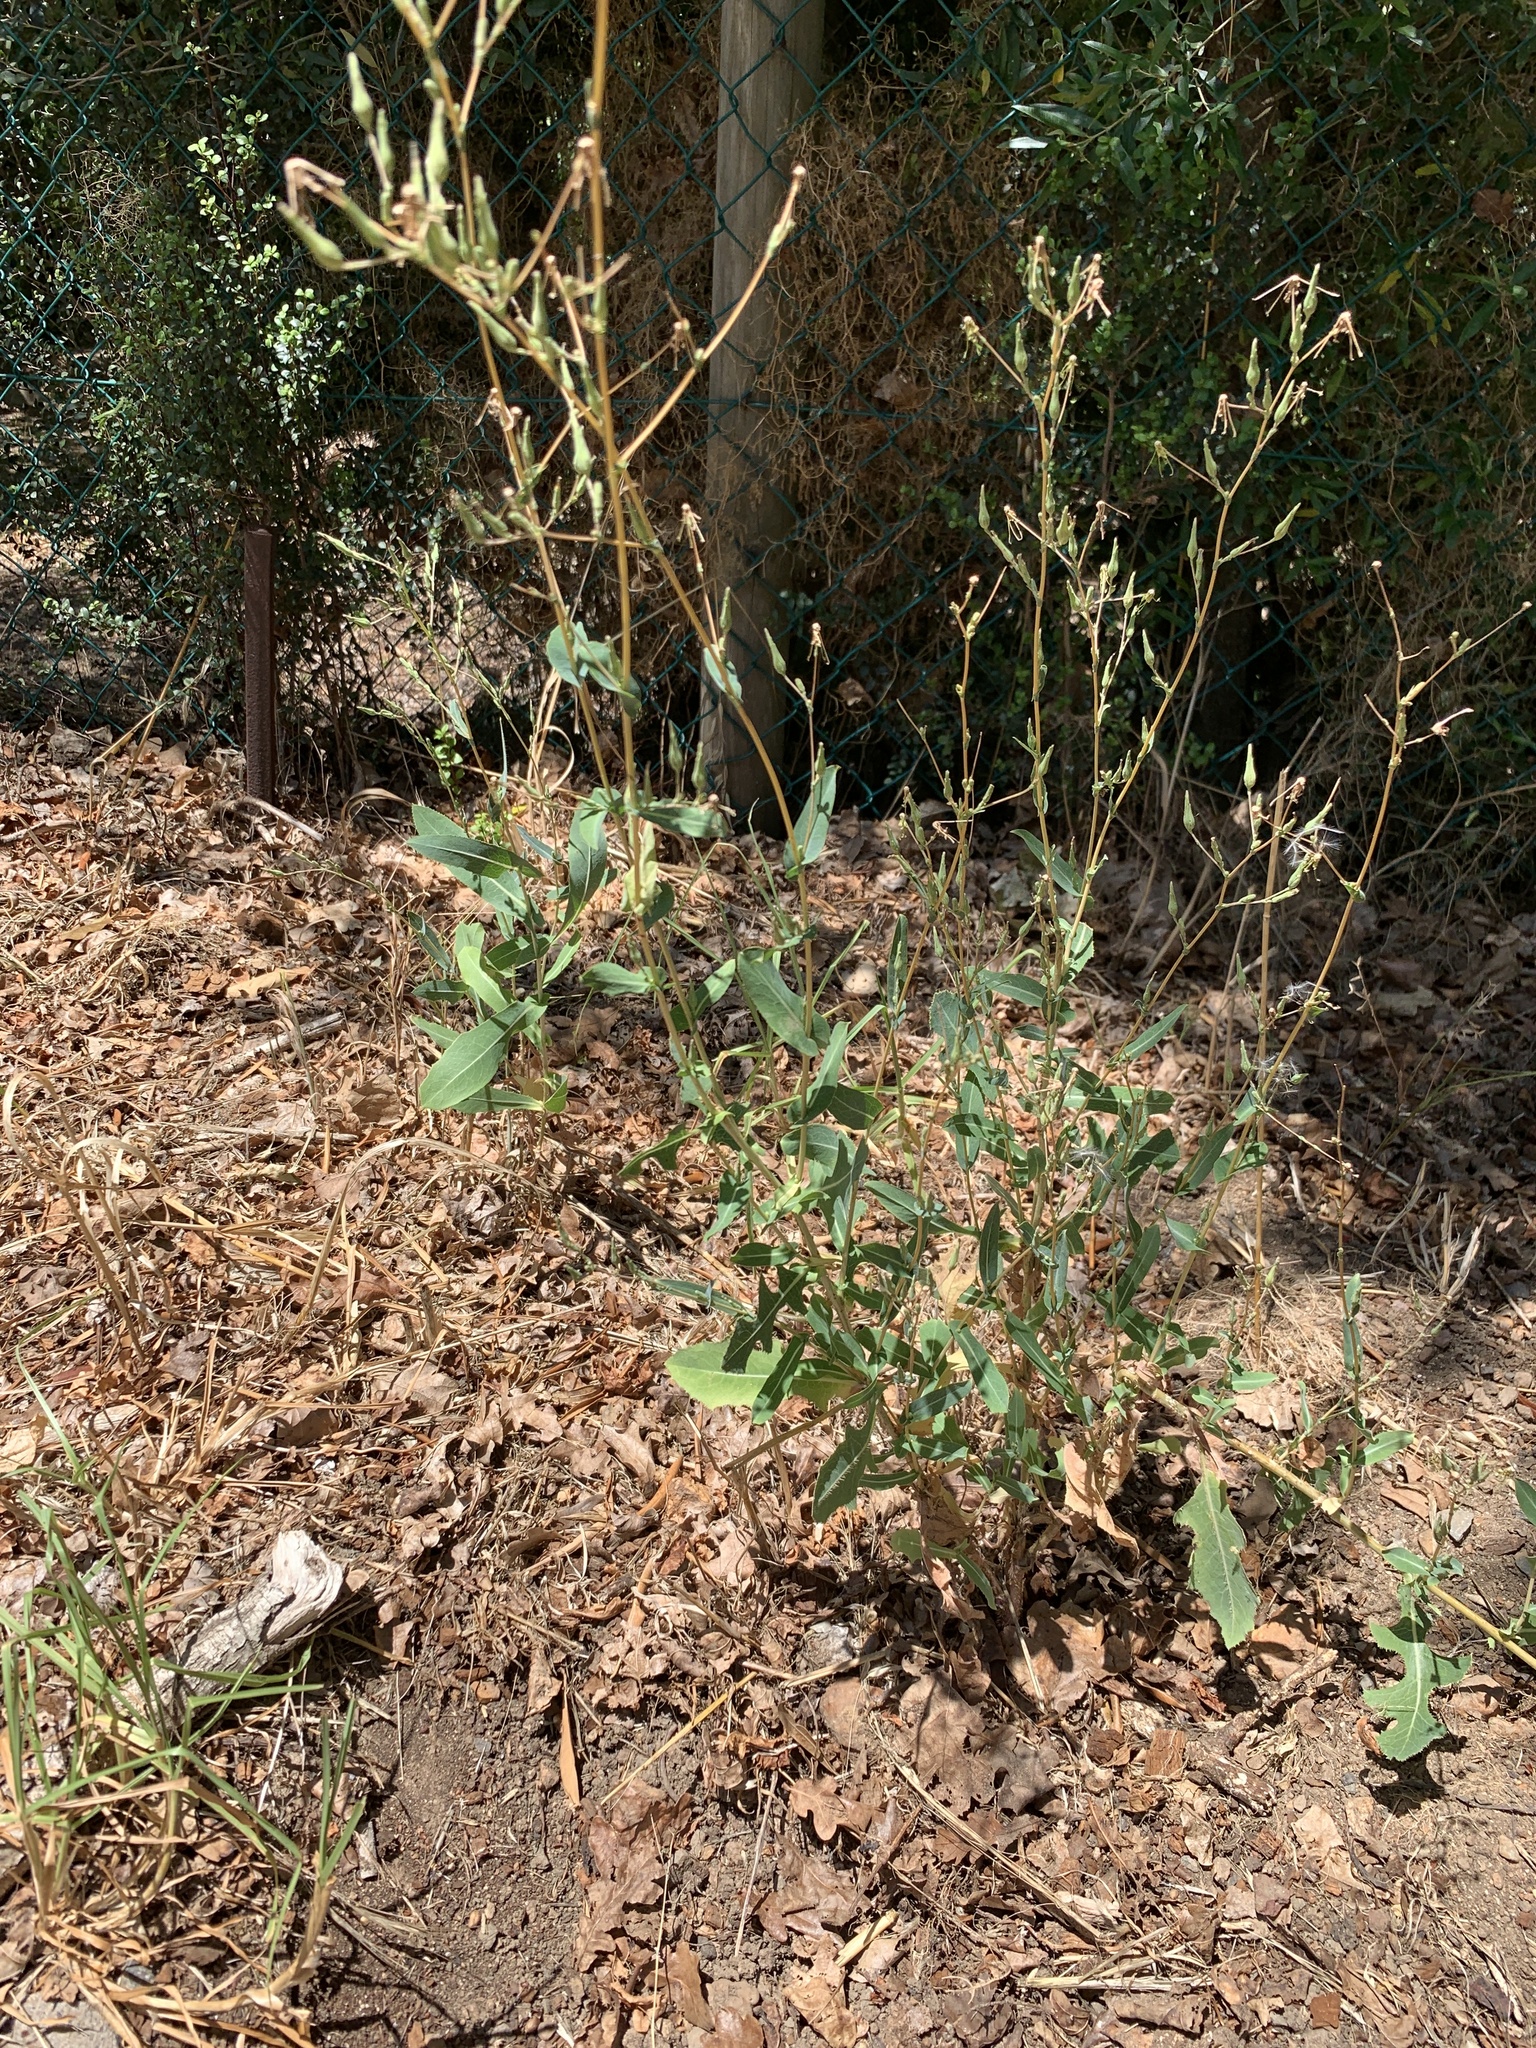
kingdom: Plantae
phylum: Tracheophyta
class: Magnoliopsida
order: Asterales
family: Asteraceae
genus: Lactuca
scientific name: Lactuca serriola
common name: Prickly lettuce
